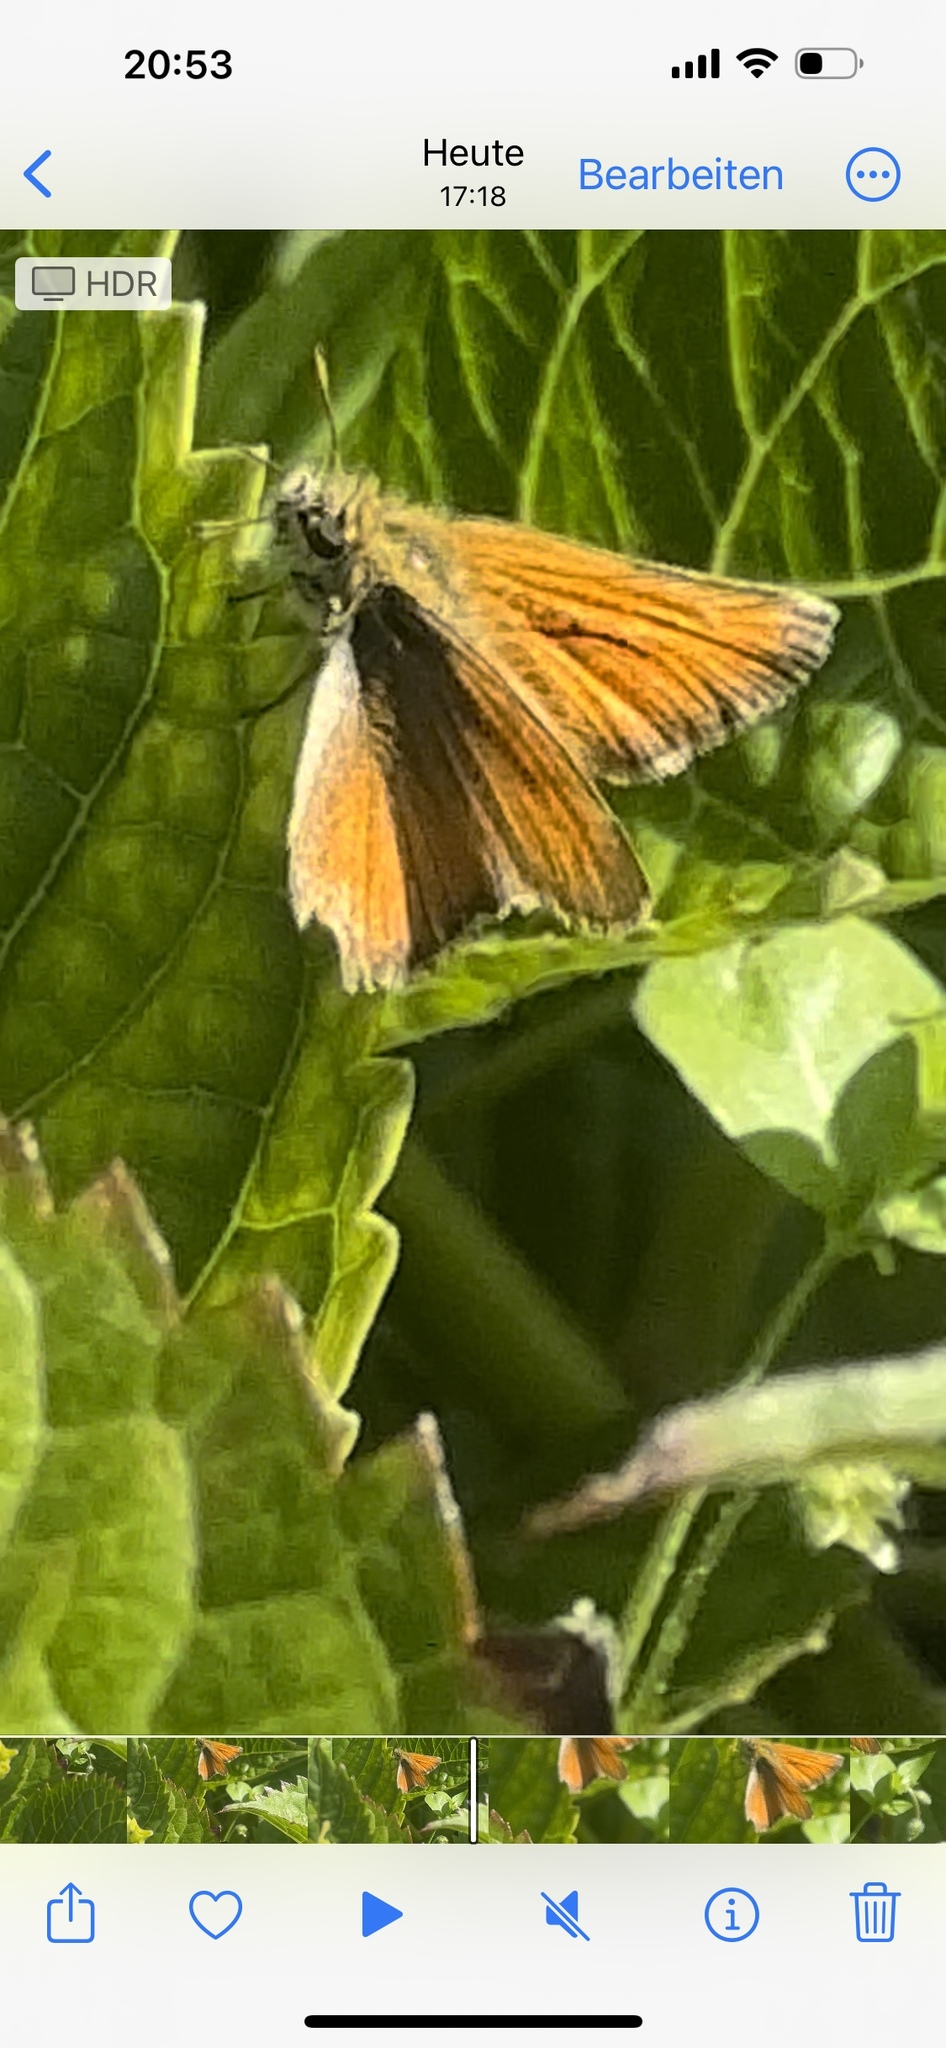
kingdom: Animalia
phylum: Arthropoda
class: Insecta
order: Lepidoptera
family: Hesperiidae
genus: Thymelicus
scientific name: Thymelicus sylvestris
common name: Small skipper
